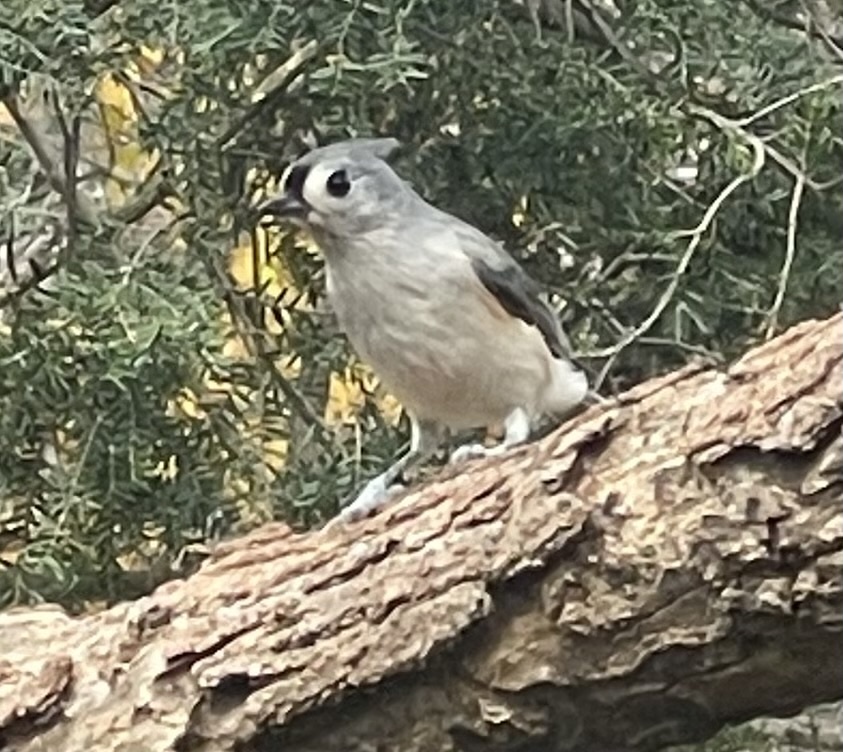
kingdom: Animalia
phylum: Chordata
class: Aves
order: Passeriformes
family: Paridae
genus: Baeolophus
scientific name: Baeolophus bicolor
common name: Tufted titmouse
